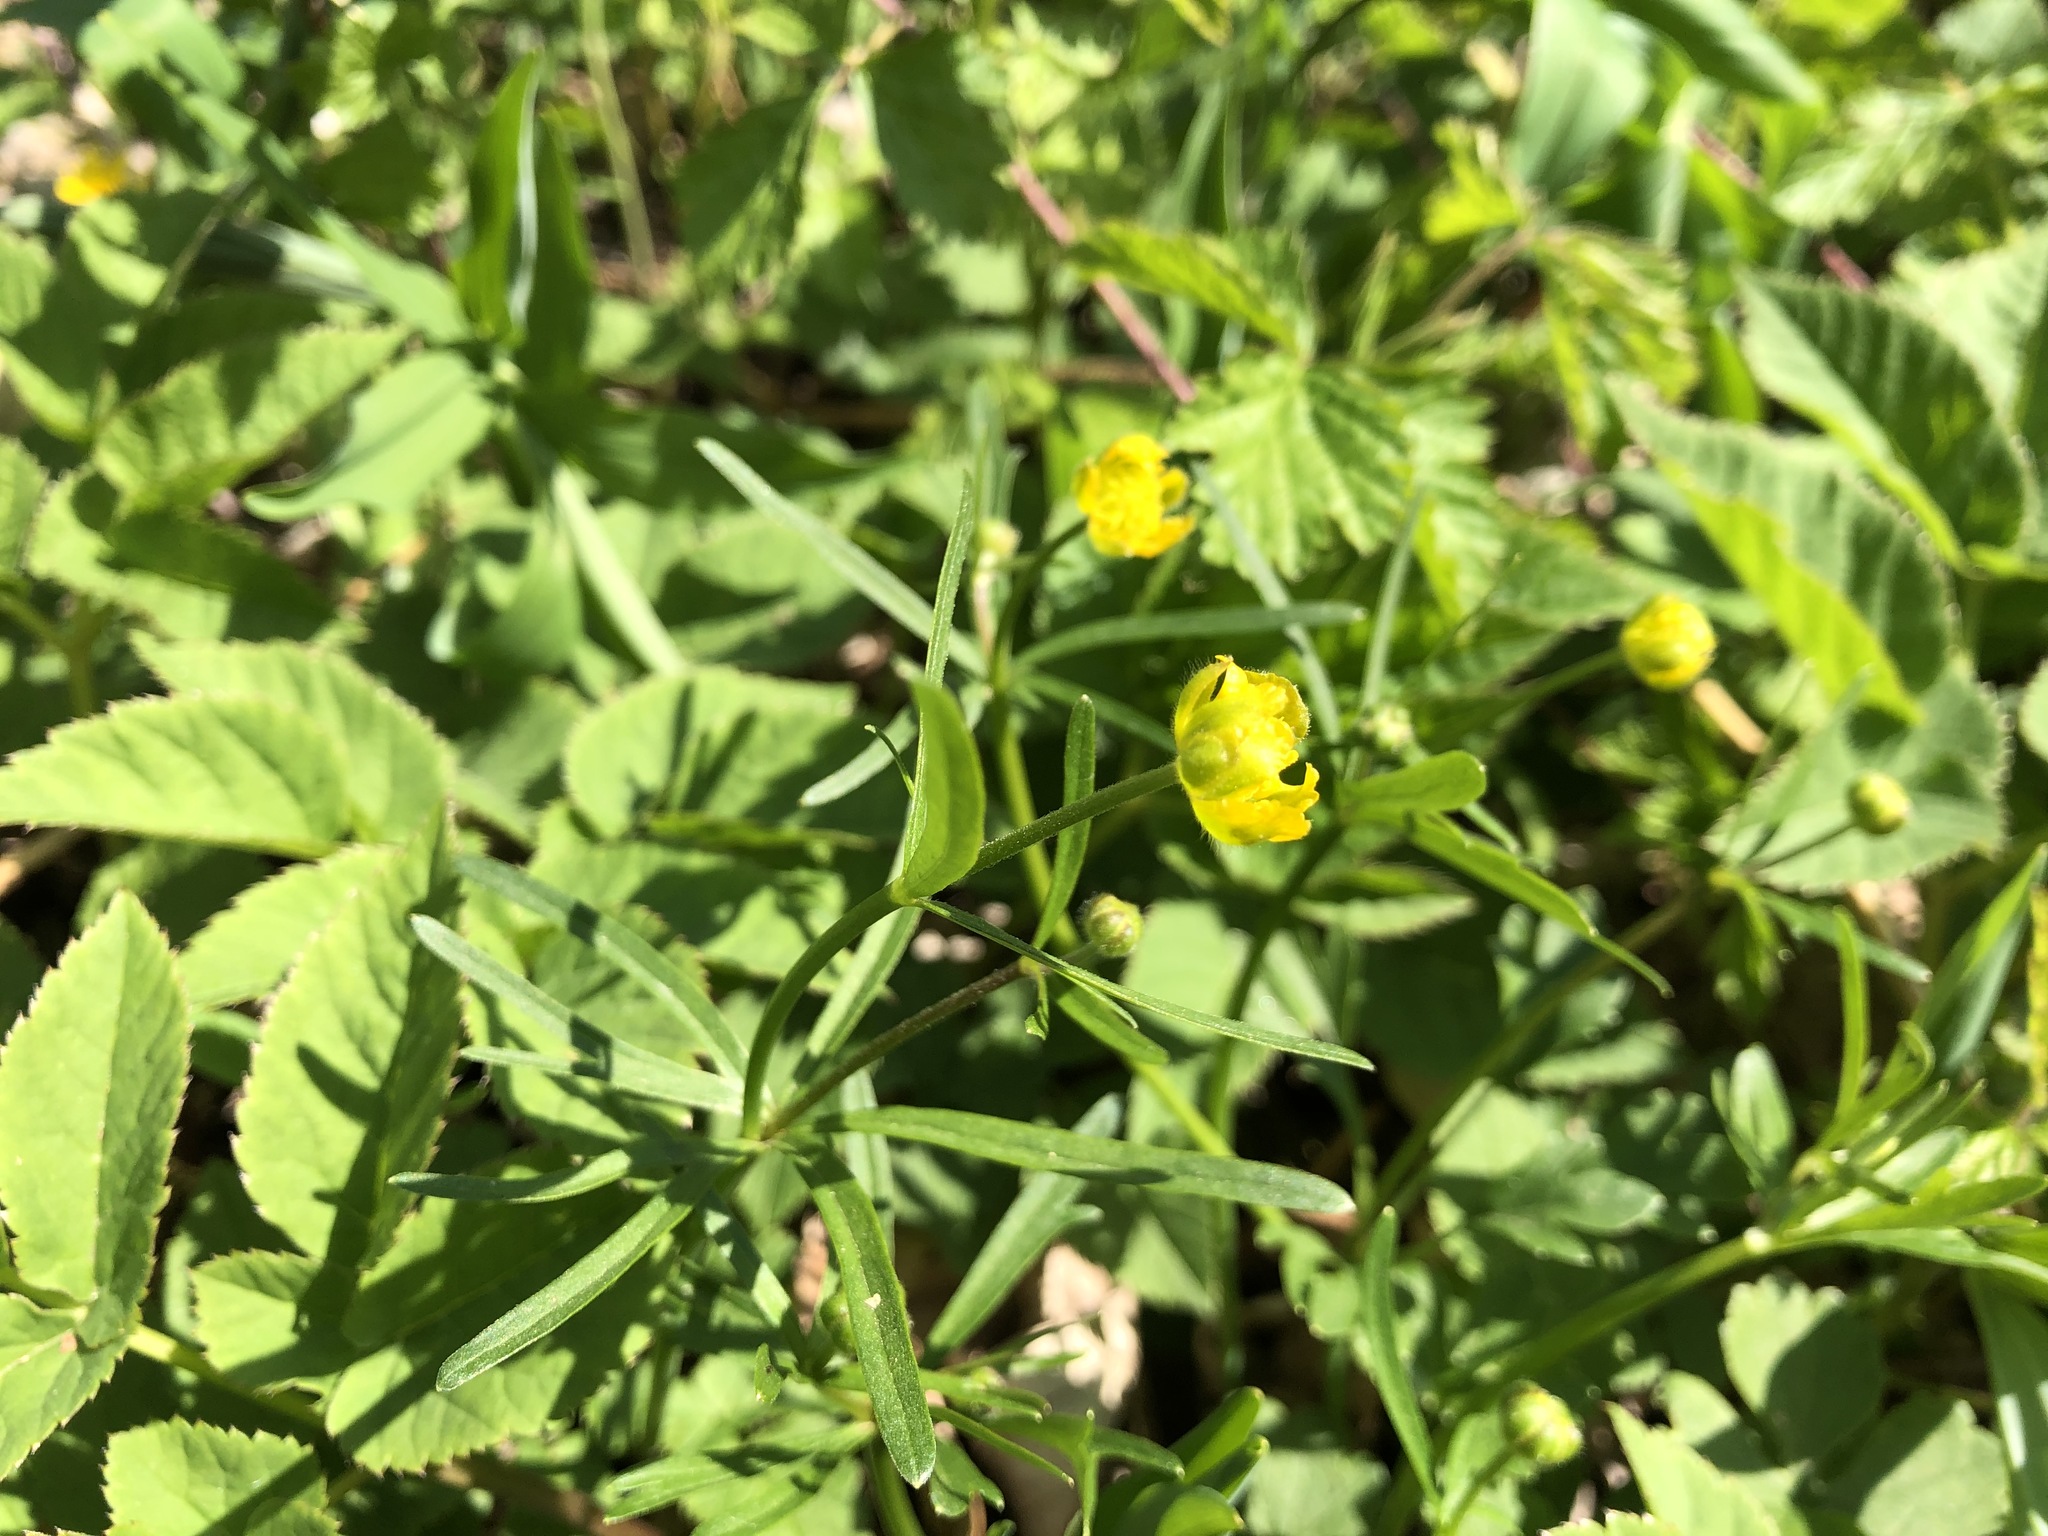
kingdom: Plantae
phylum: Tracheophyta
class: Magnoliopsida
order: Ranunculales
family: Ranunculaceae
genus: Ranunculus
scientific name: Ranunculus auricomus
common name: Goldilocks buttercup
